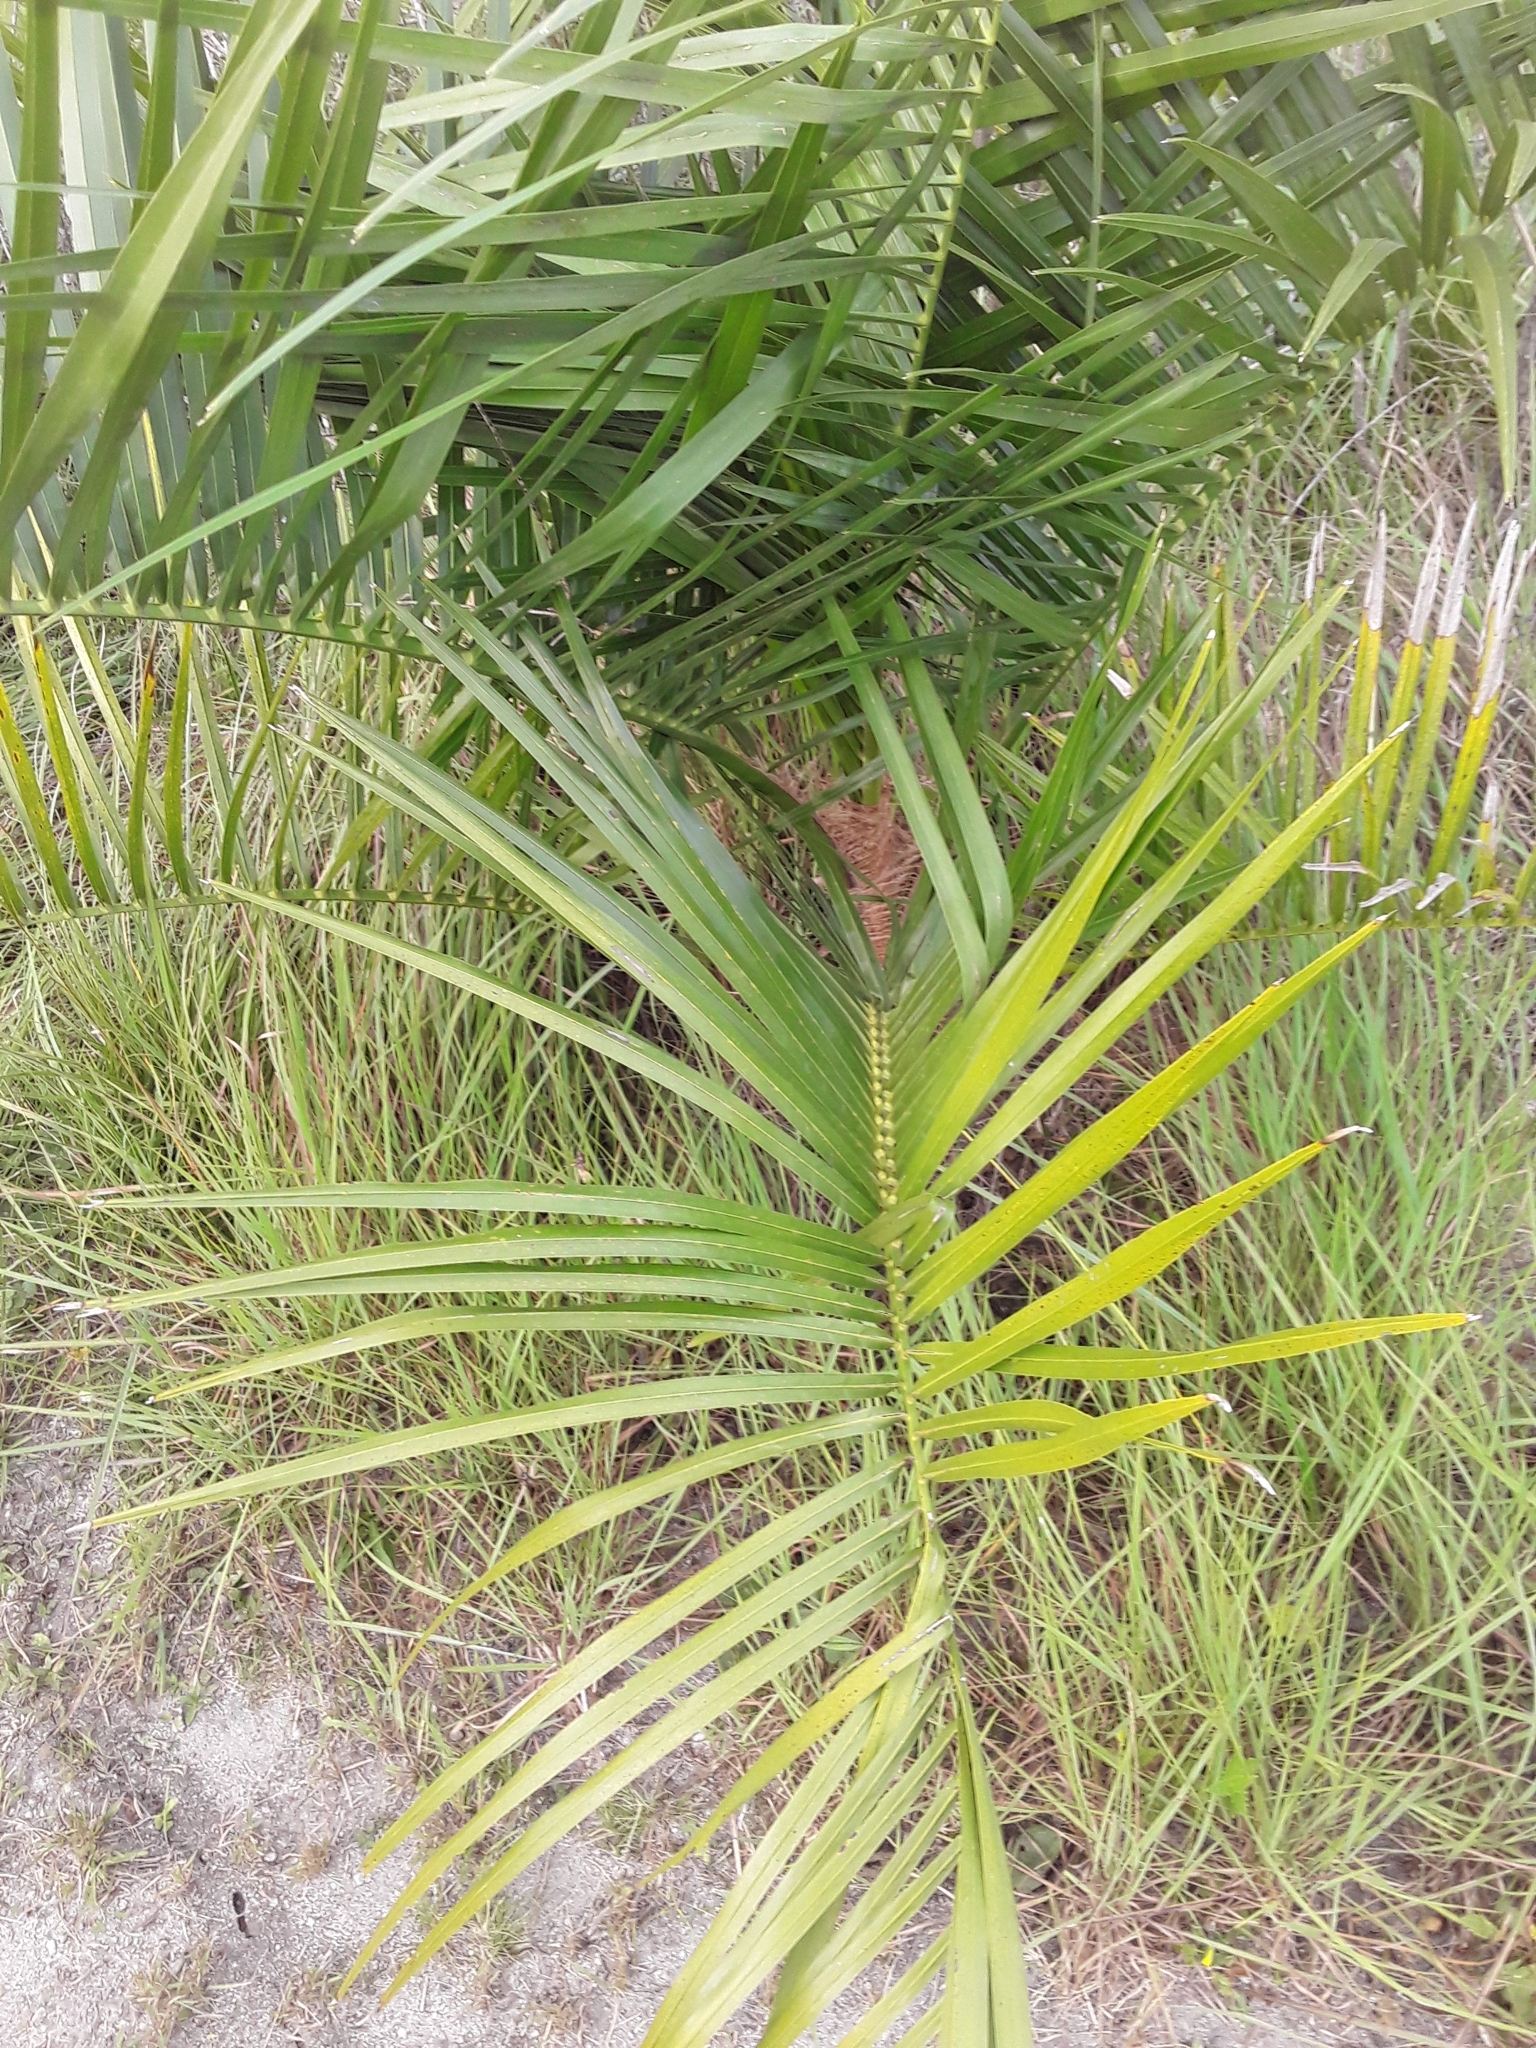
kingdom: Plantae
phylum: Tracheophyta
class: Liliopsida
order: Arecales
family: Arecaceae
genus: Phoenix
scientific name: Phoenix canariensis
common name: Canary island date palm
